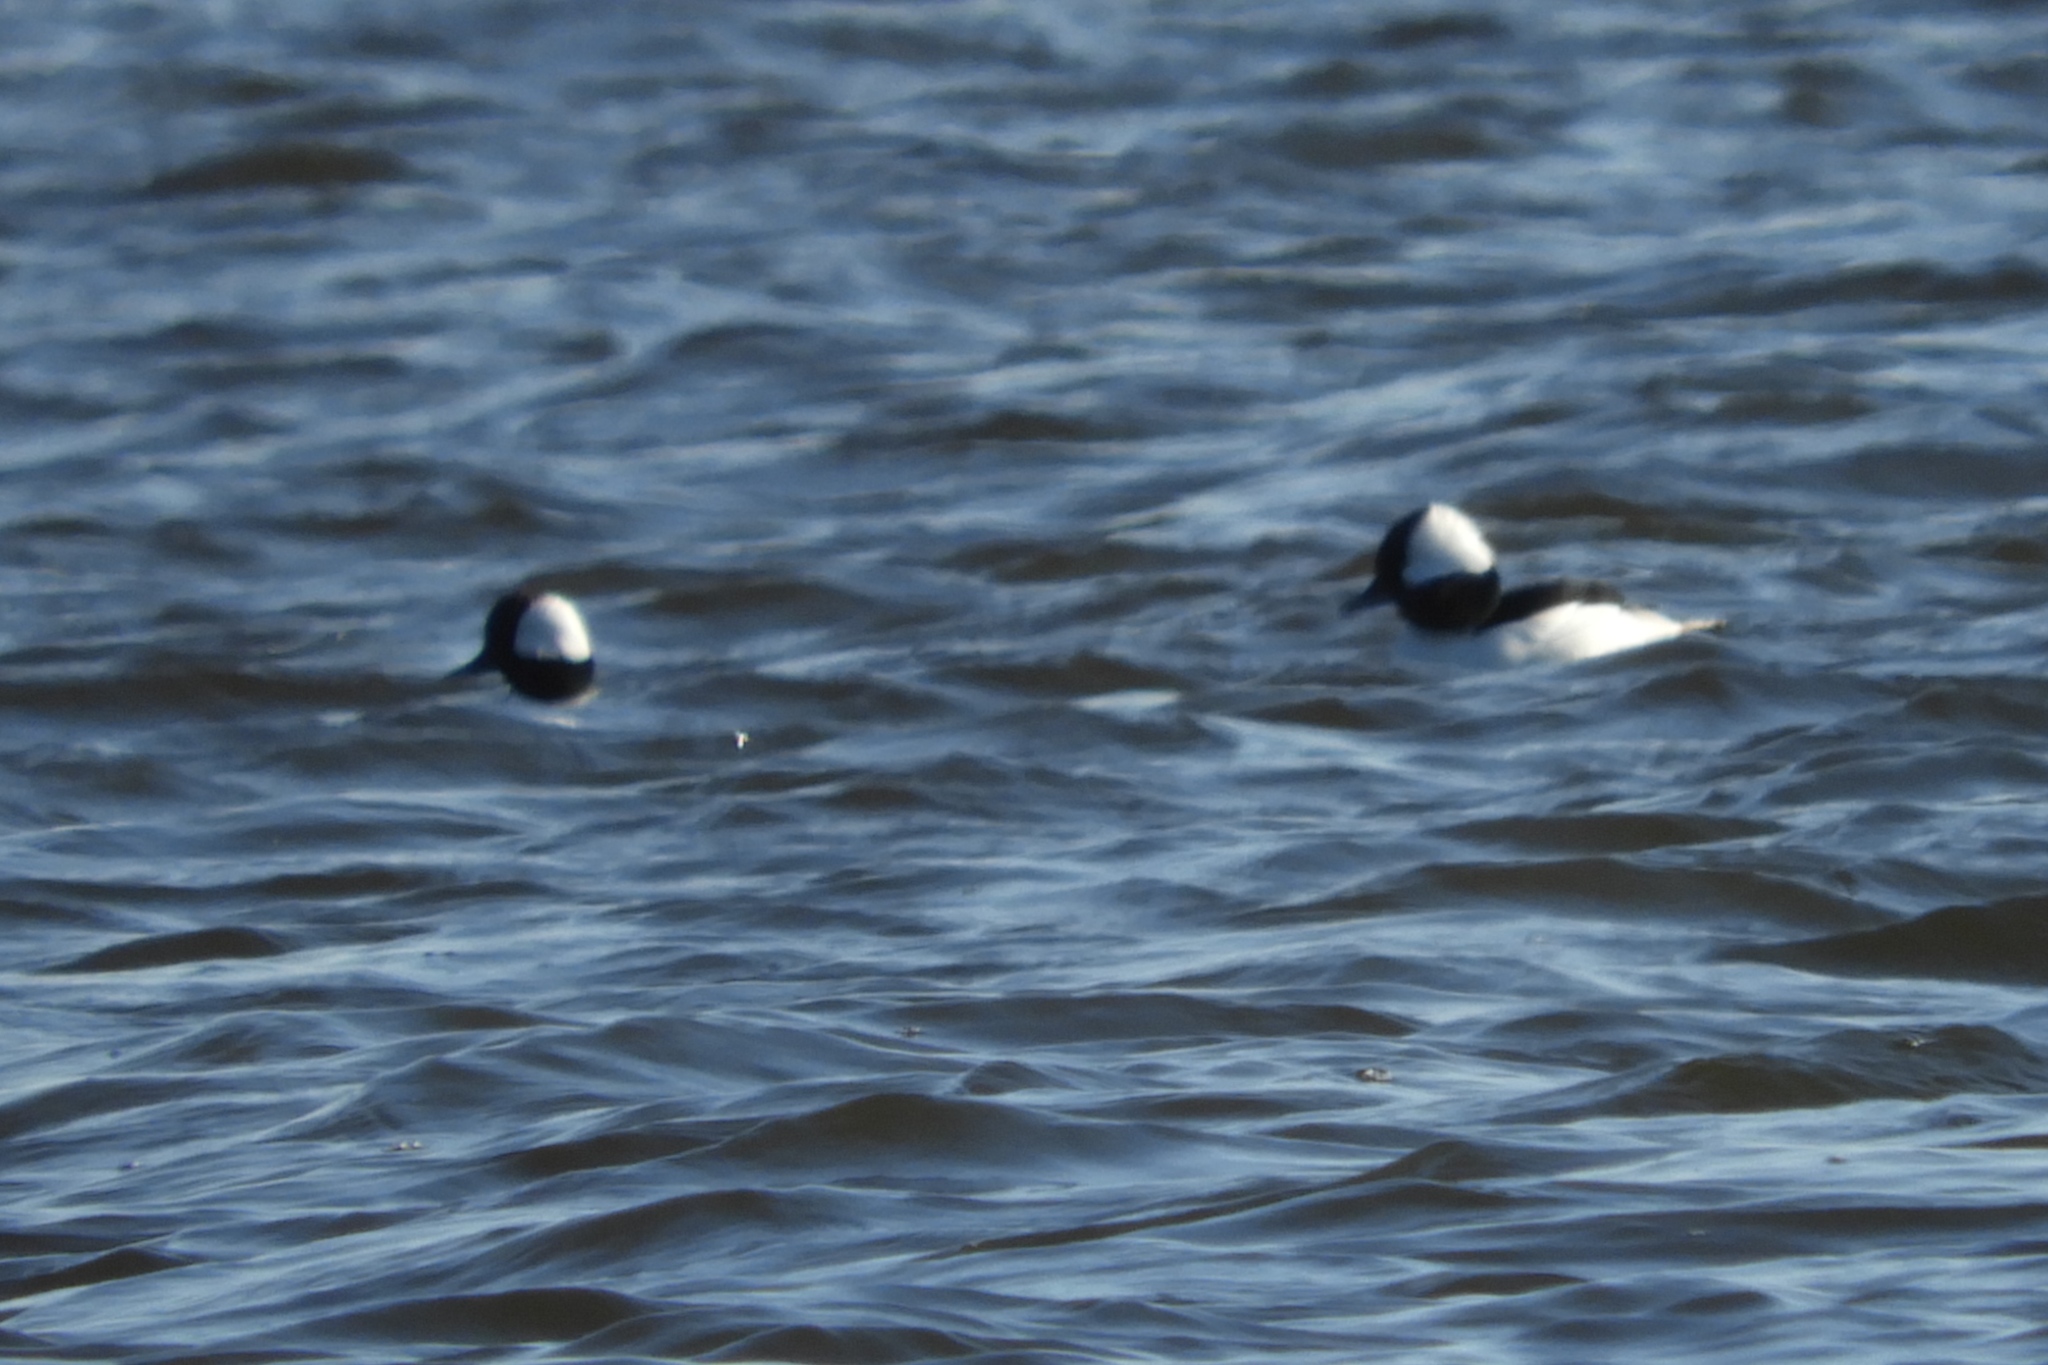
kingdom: Animalia
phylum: Chordata
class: Aves
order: Anseriformes
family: Anatidae
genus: Bucephala
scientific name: Bucephala albeola
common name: Bufflehead
